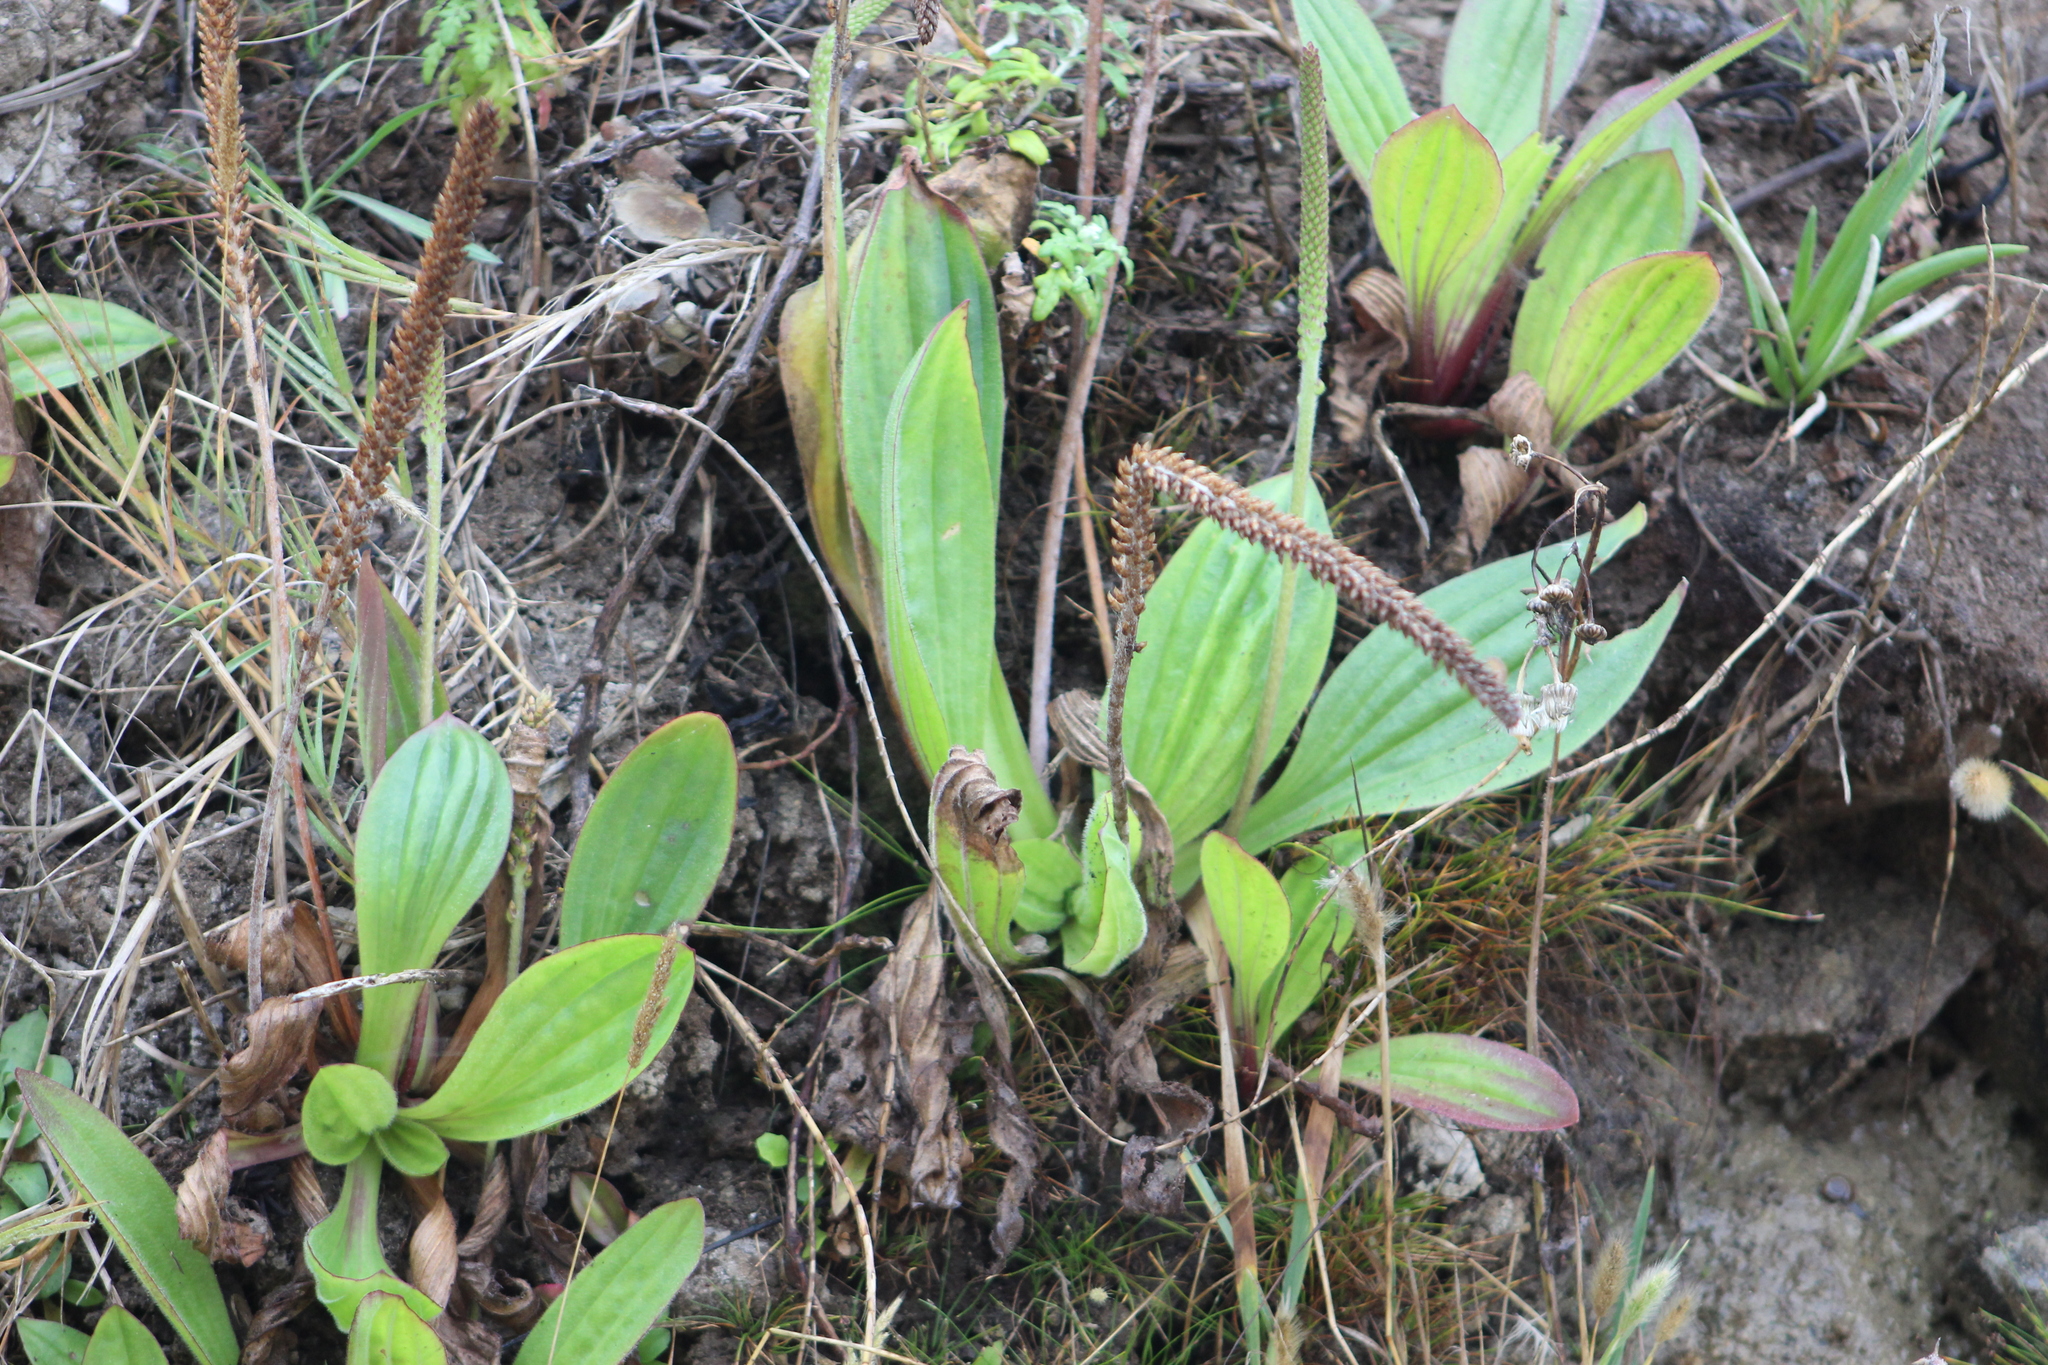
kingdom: Plantae
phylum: Tracheophyta
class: Magnoliopsida
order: Lamiales
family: Plantaginaceae
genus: Plantago
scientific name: Plantago subnuda
